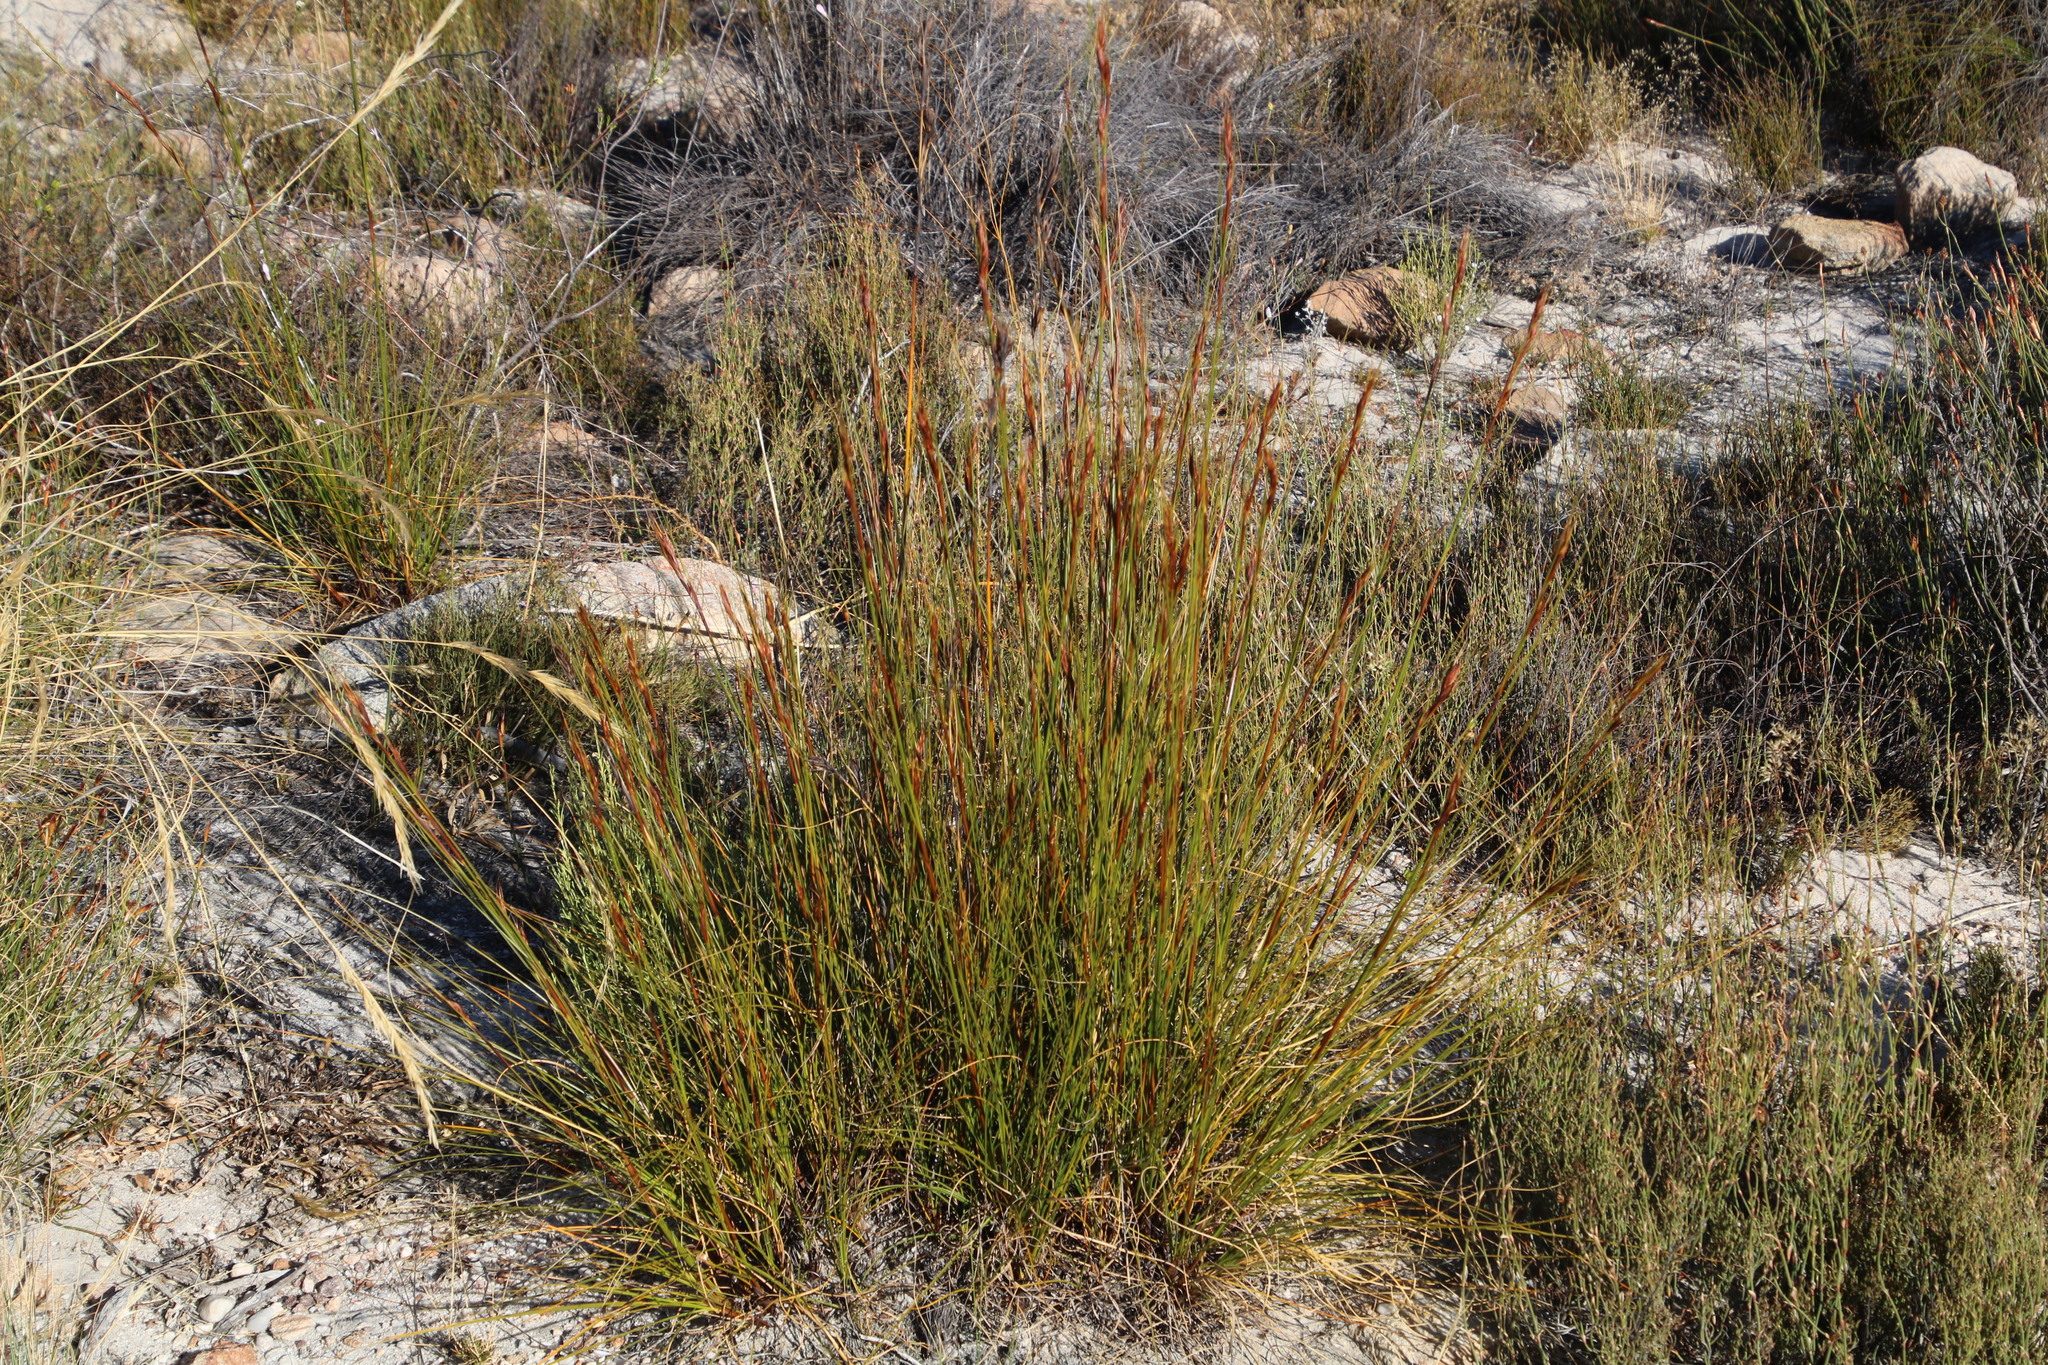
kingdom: Plantae
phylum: Tracheophyta
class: Liliopsida
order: Poales
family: Cyperaceae
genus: Tetraria
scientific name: Tetraria ustulata
